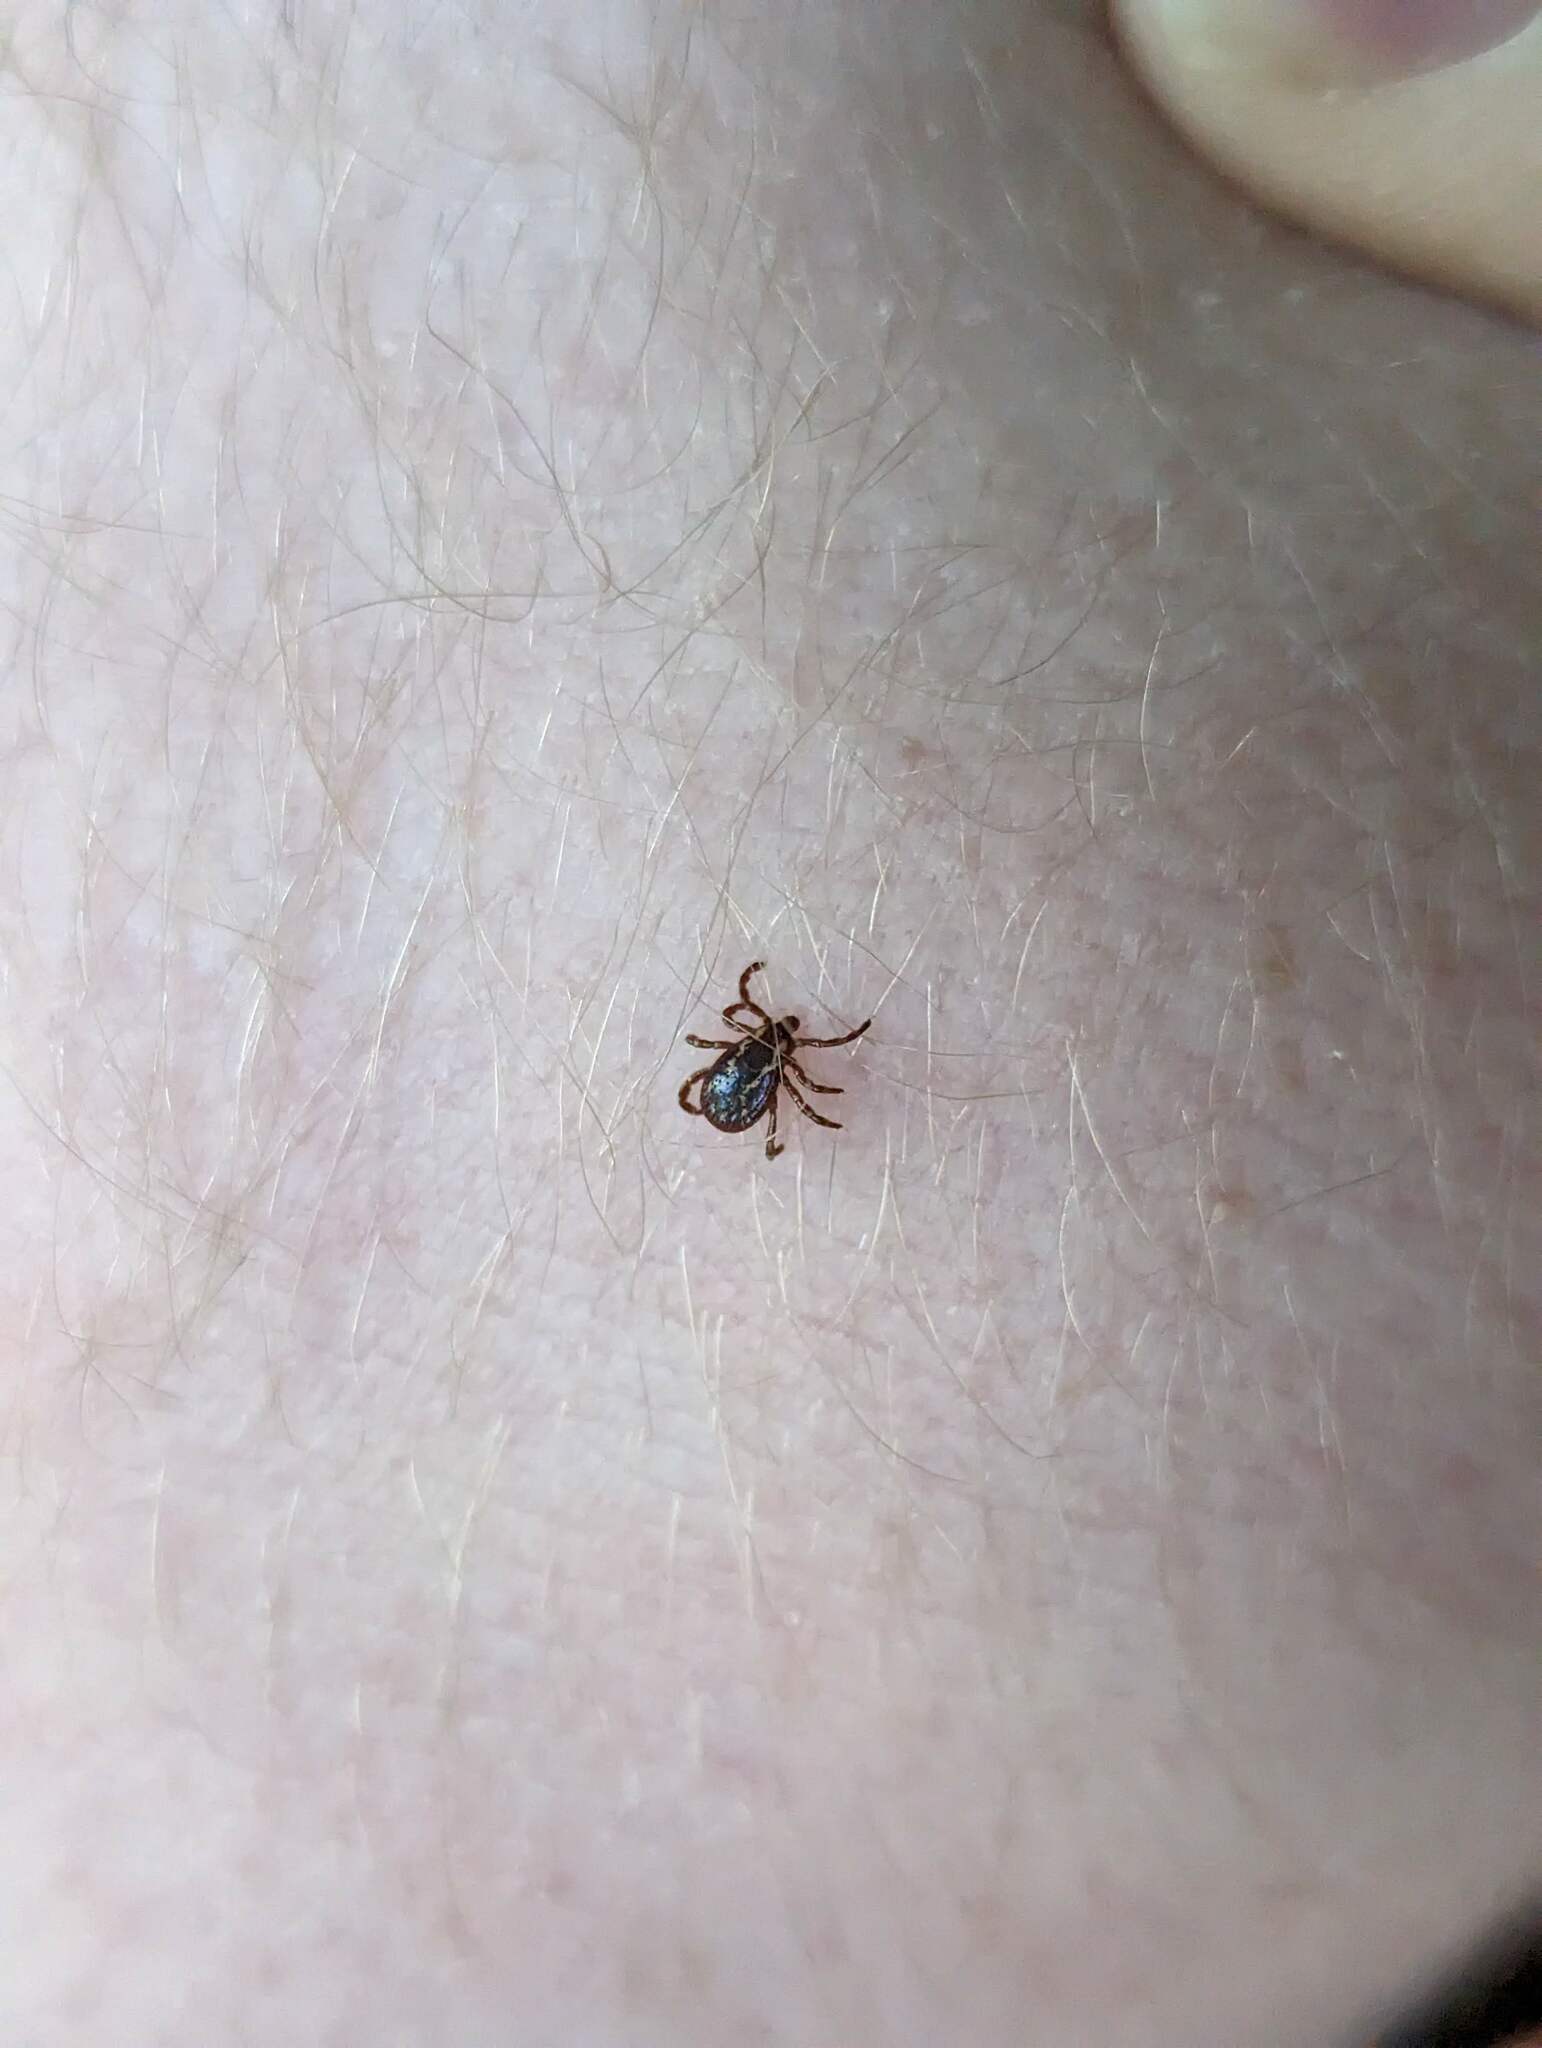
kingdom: Animalia
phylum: Arthropoda
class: Arachnida
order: Ixodida
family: Ixodidae
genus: Dermacentor
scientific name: Dermacentor variabilis
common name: American dog tick
